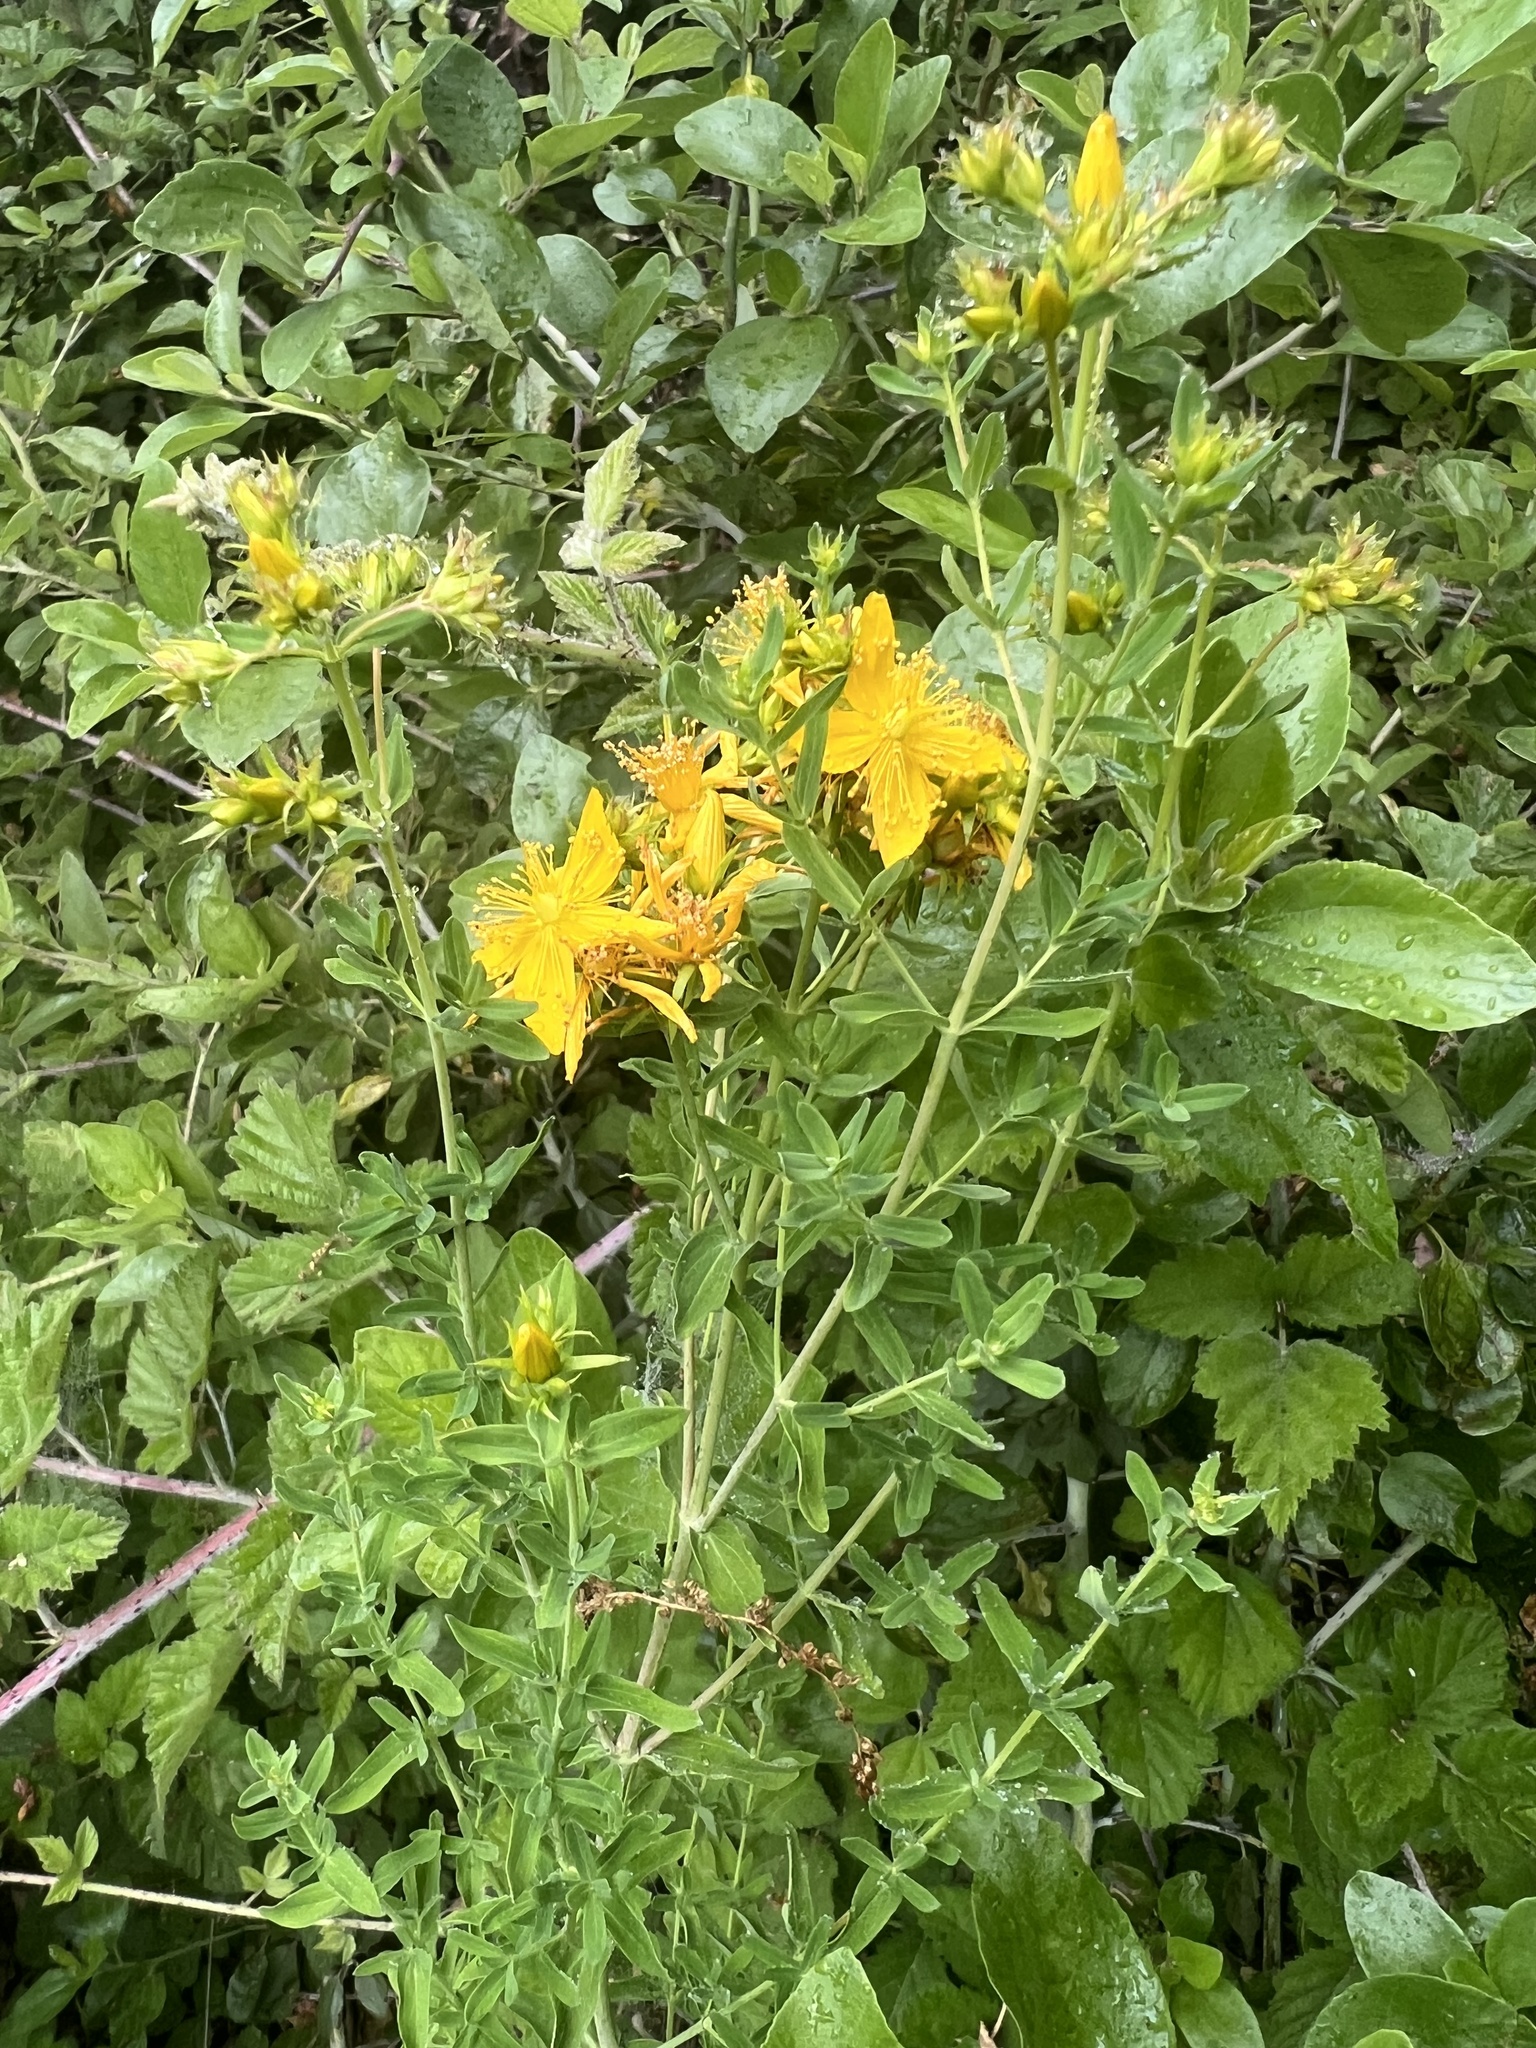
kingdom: Plantae
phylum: Tracheophyta
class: Magnoliopsida
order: Malpighiales
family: Hypericaceae
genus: Hypericum
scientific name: Hypericum perforatum
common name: Common st. johnswort
